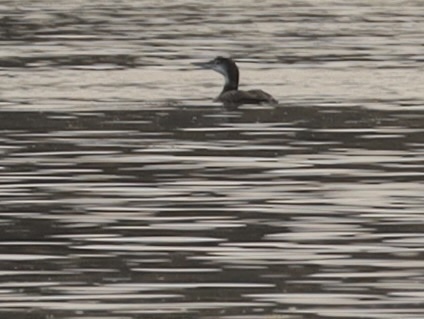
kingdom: Animalia
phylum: Chordata
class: Aves
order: Gaviiformes
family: Gaviidae
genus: Gavia
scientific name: Gavia immer
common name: Common loon
